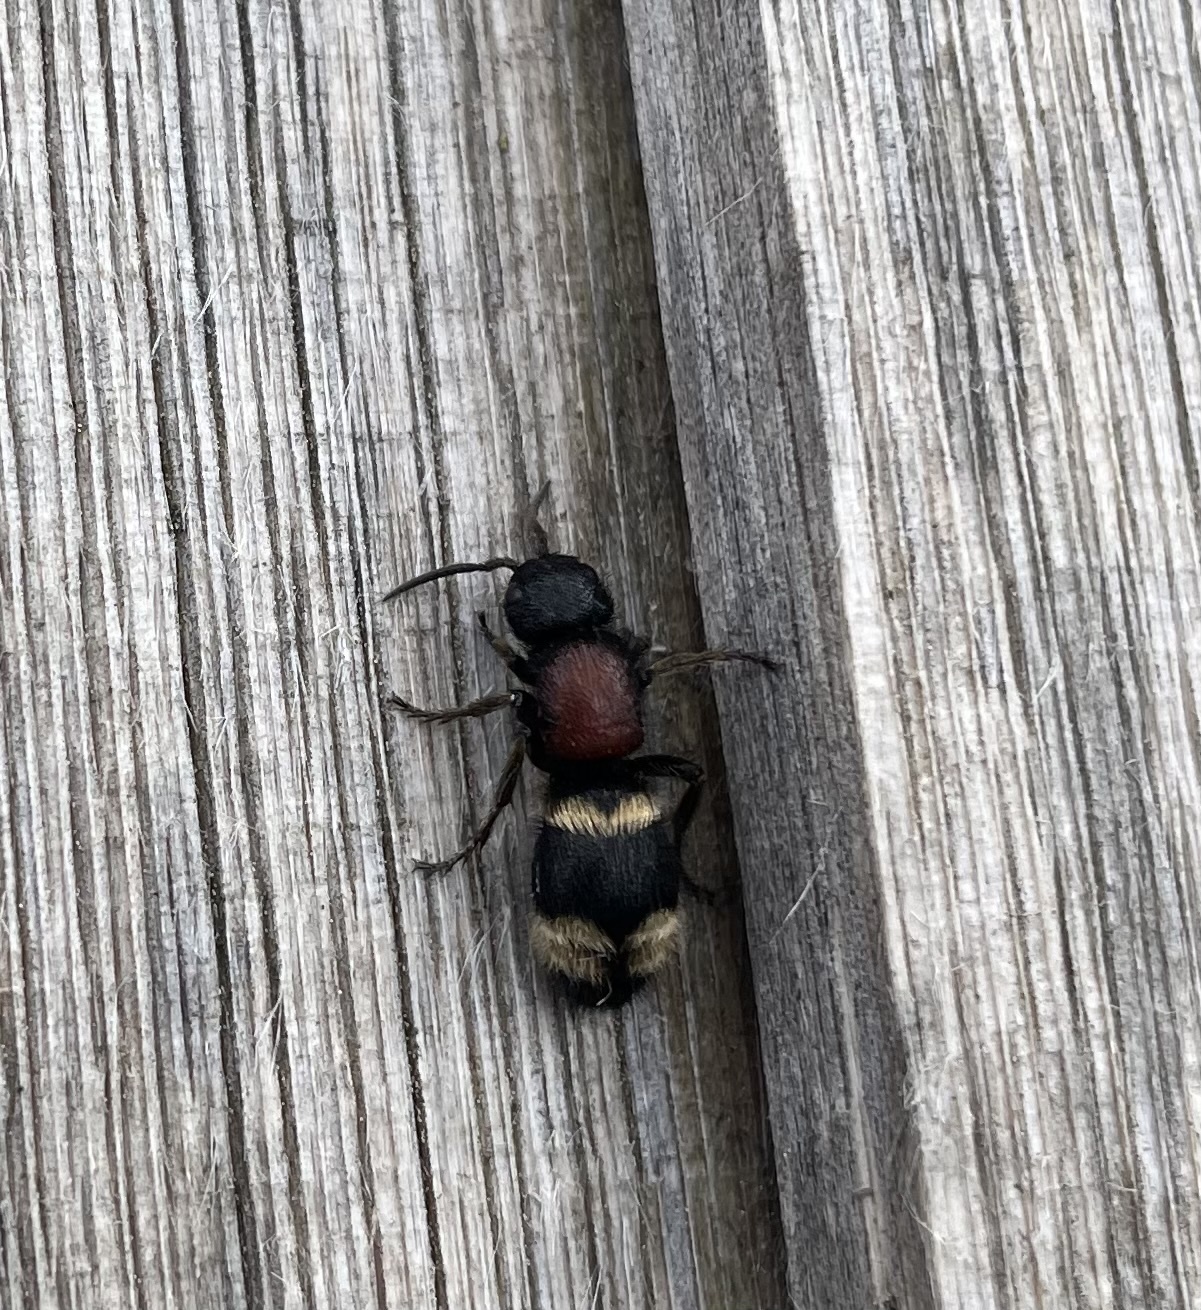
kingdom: Animalia
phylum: Arthropoda
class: Insecta
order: Hymenoptera
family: Mutillidae
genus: Mutilla
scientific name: Mutilla europaea
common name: Large velvet ant
